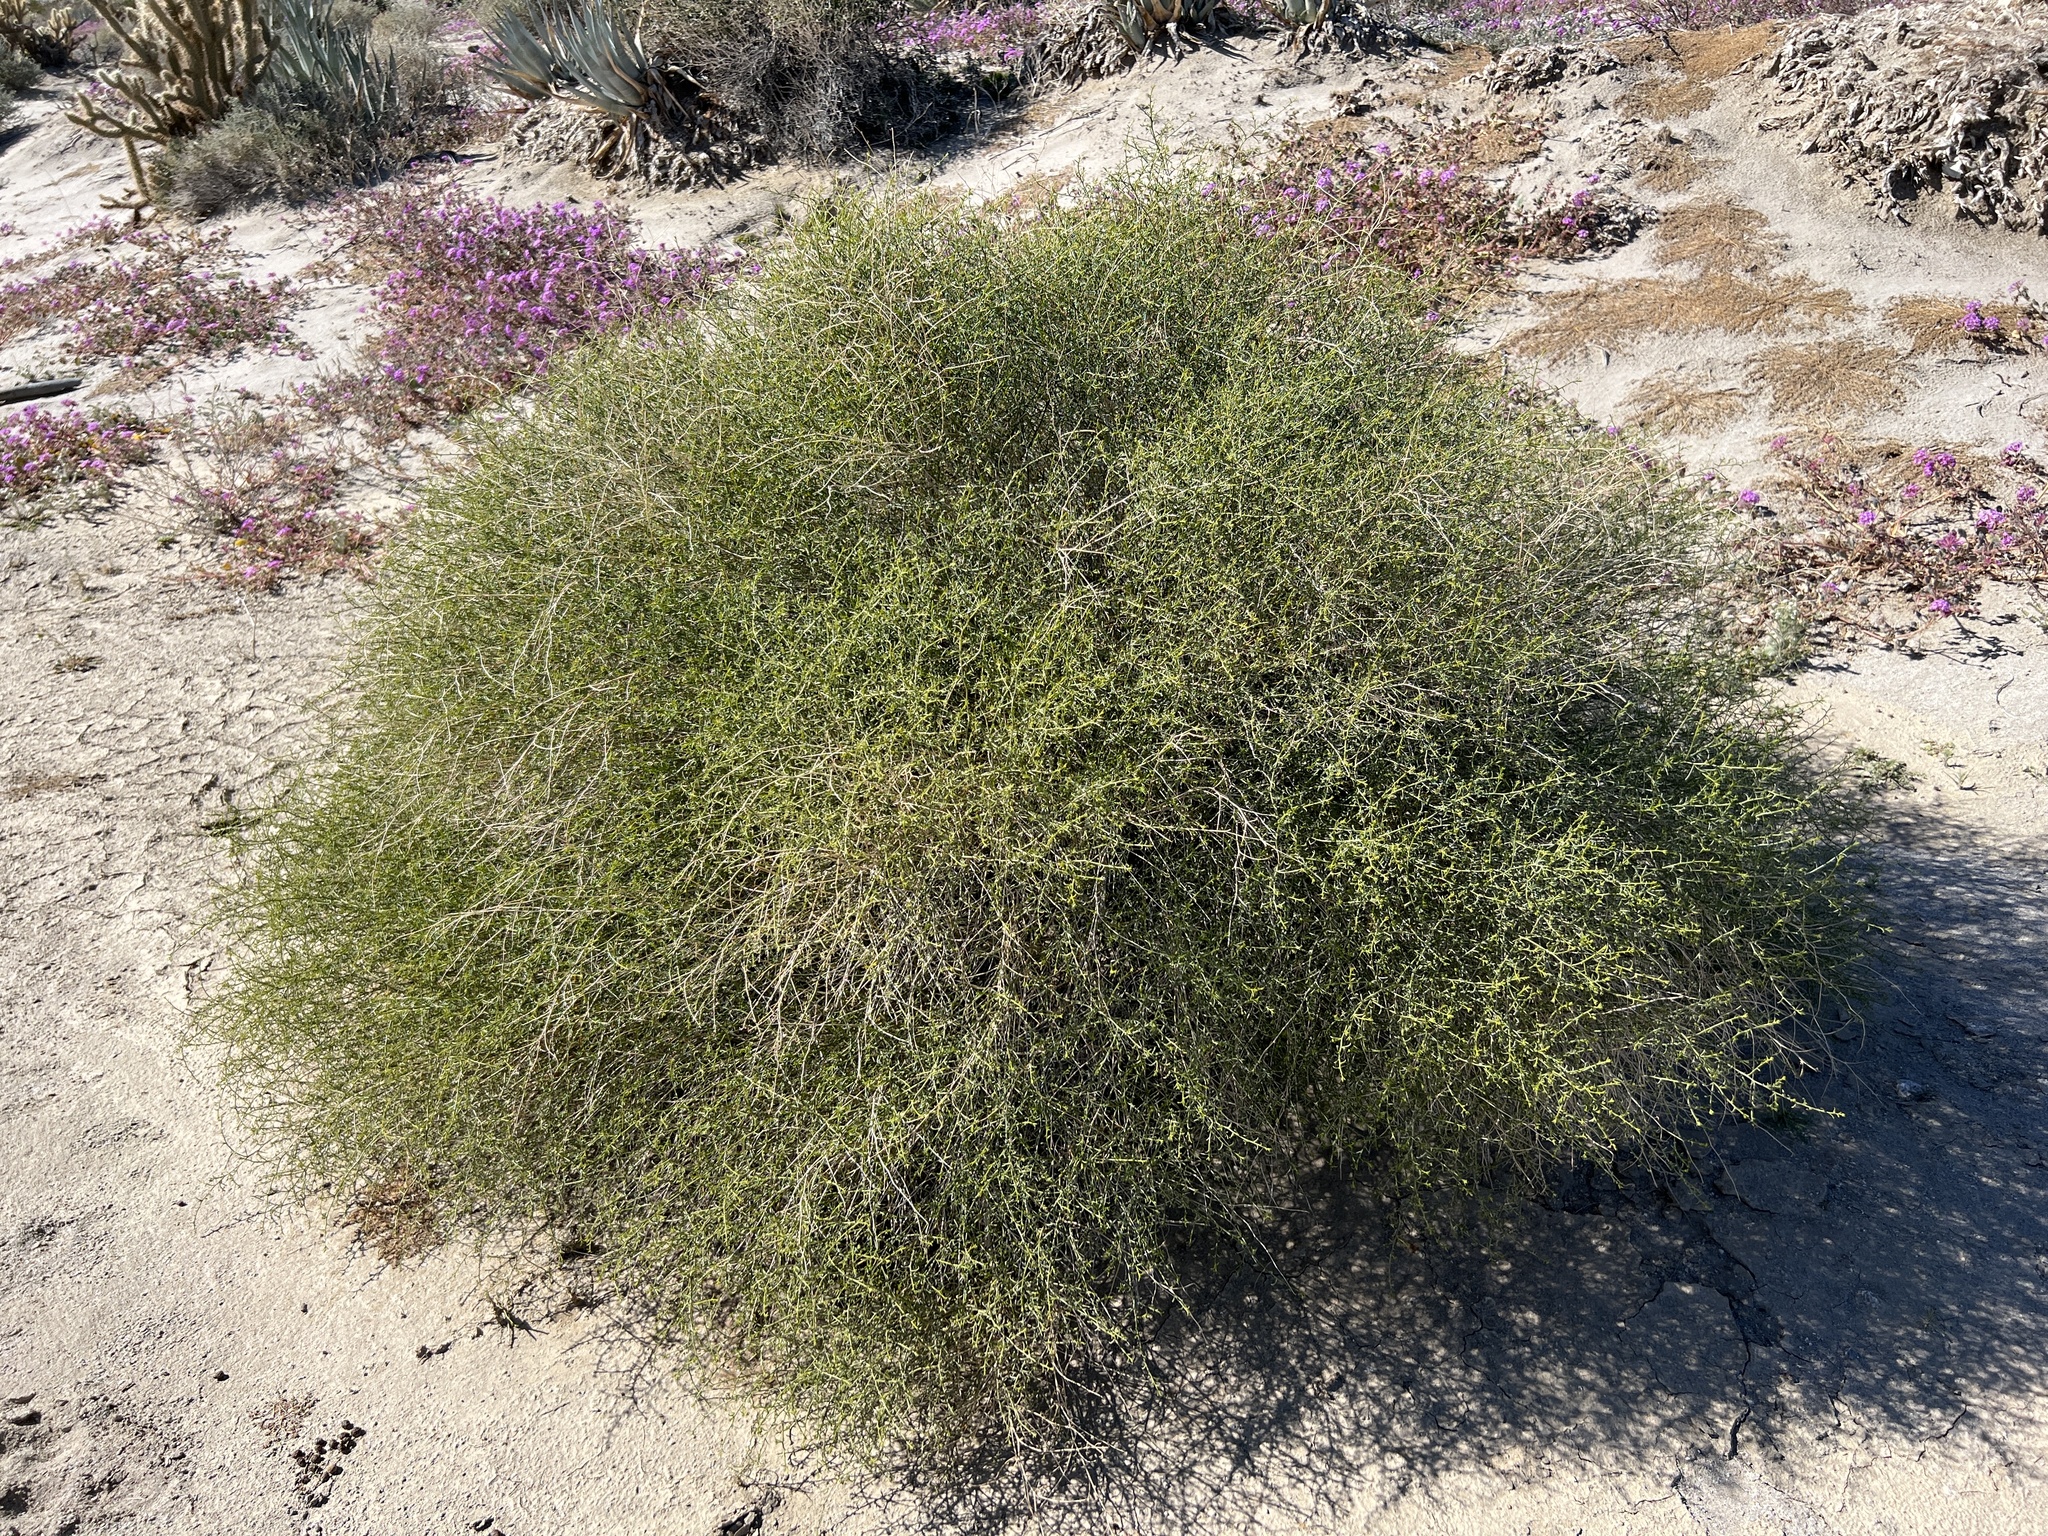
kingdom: Plantae
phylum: Tracheophyta
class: Magnoliopsida
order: Asterales
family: Asteraceae
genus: Ambrosia
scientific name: Ambrosia salsola
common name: Burrobrush
